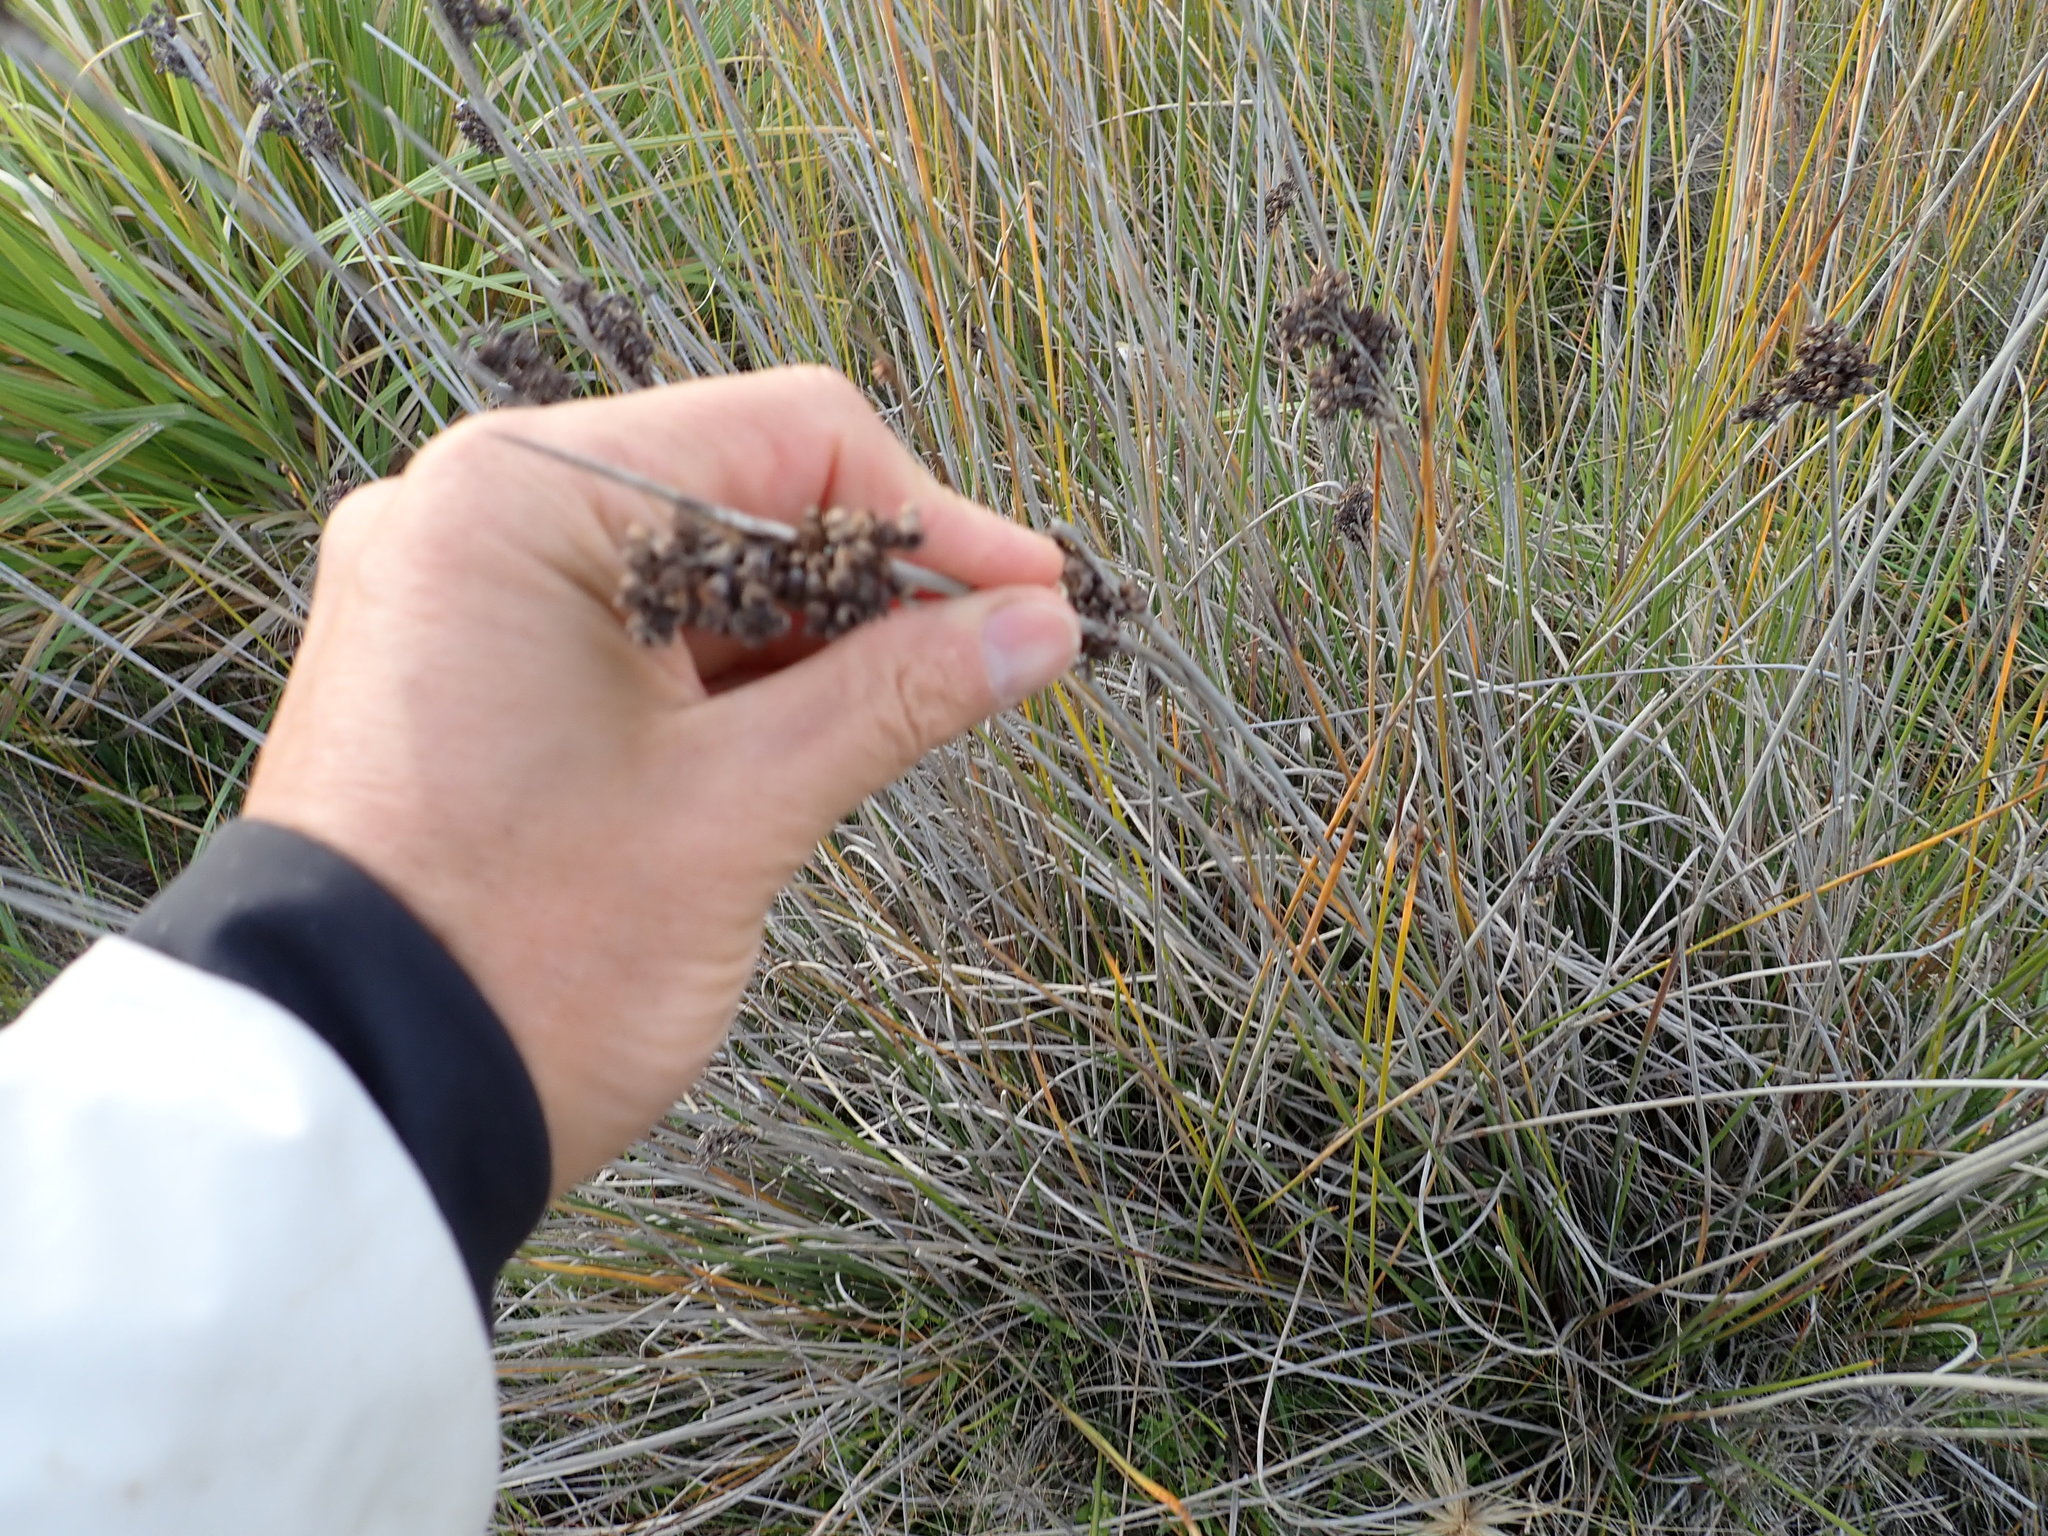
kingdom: Plantae
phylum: Tracheophyta
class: Liliopsida
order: Poales
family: Juncaceae
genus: Juncus
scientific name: Juncus acutus
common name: Sharp rush
